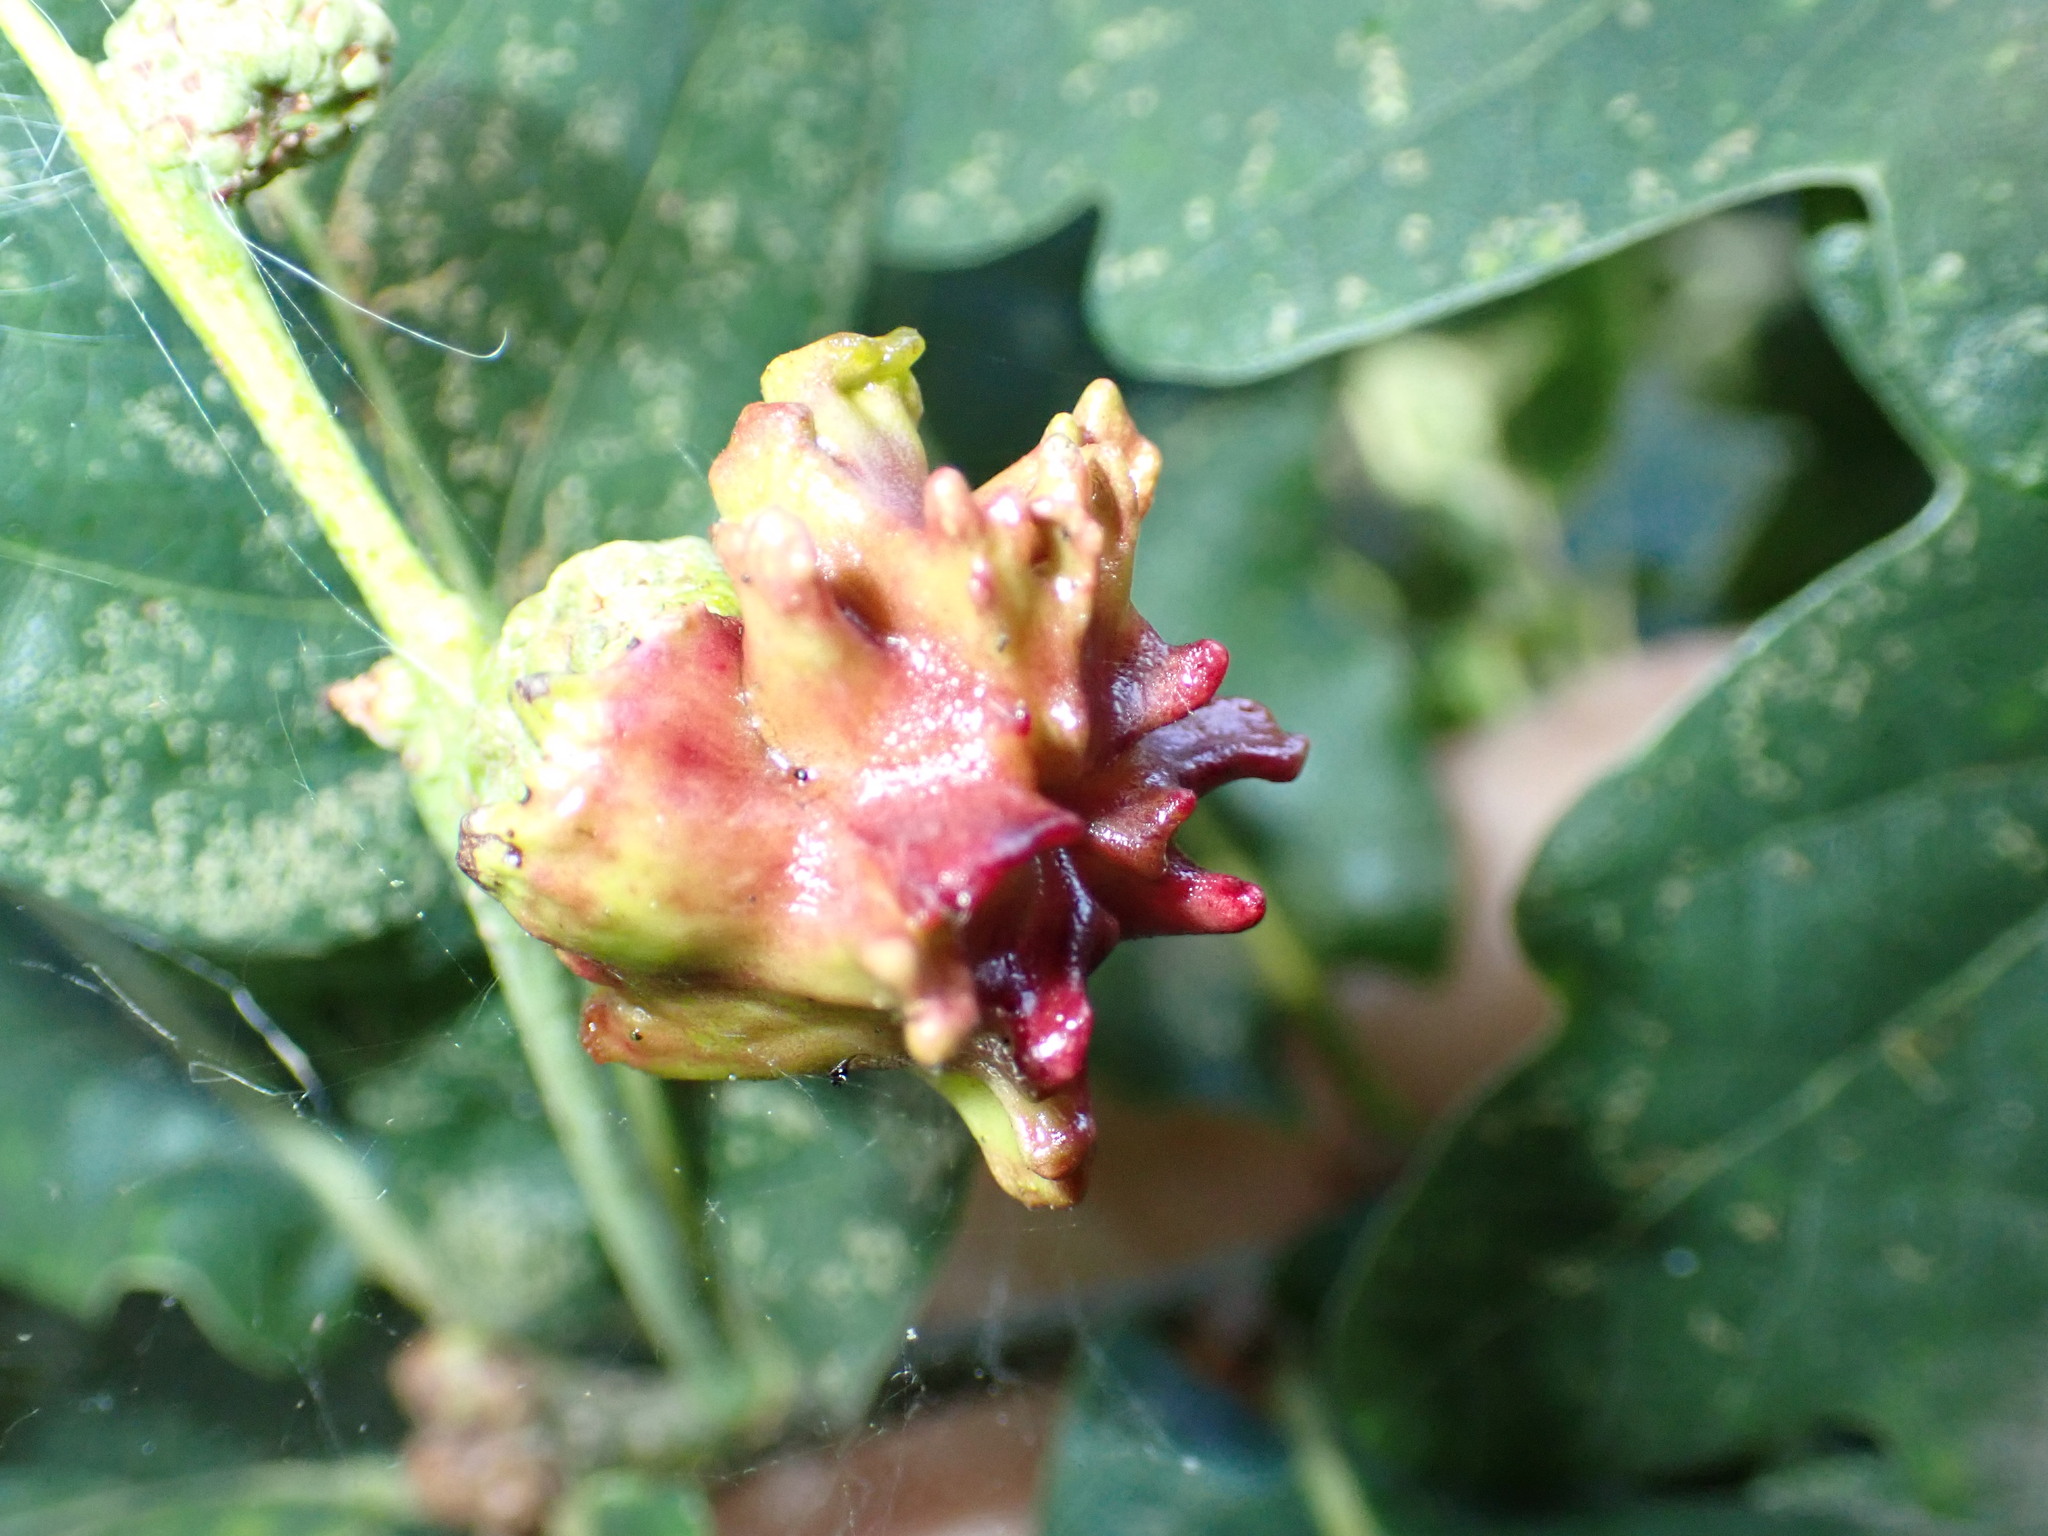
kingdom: Animalia
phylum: Arthropoda
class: Insecta
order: Hymenoptera
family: Cynipidae
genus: Andricus
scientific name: Andricus quercuscalicis
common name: Knopper gall
